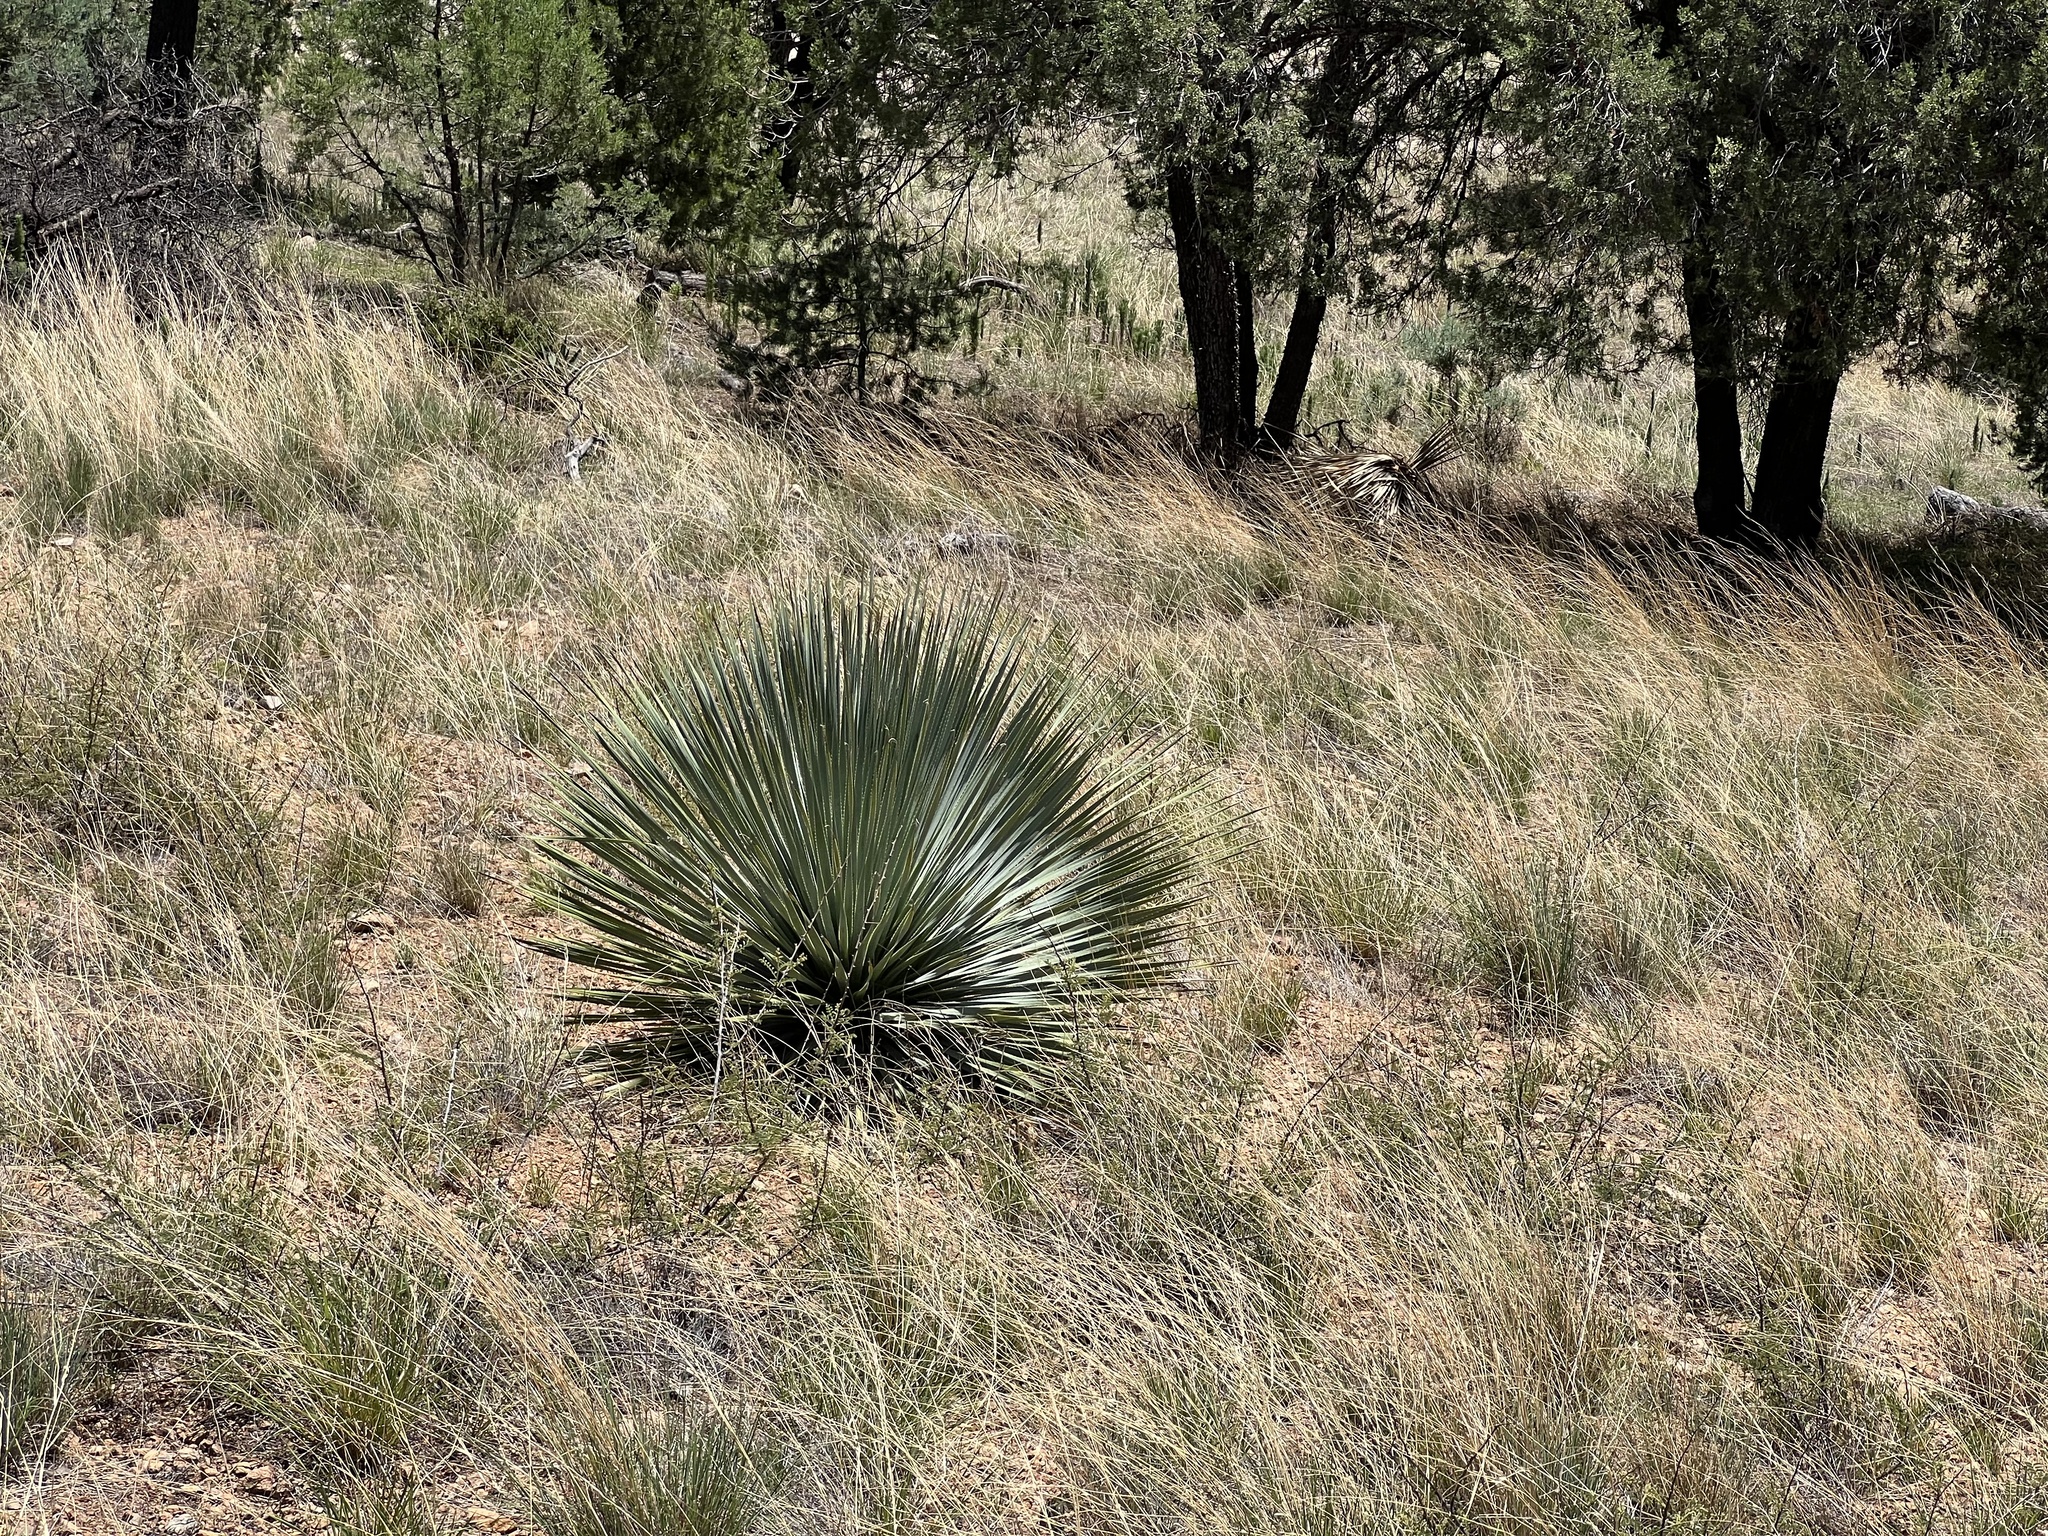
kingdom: Plantae
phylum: Tracheophyta
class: Liliopsida
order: Asparagales
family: Asparagaceae
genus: Dasylirion
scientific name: Dasylirion wheeleri
